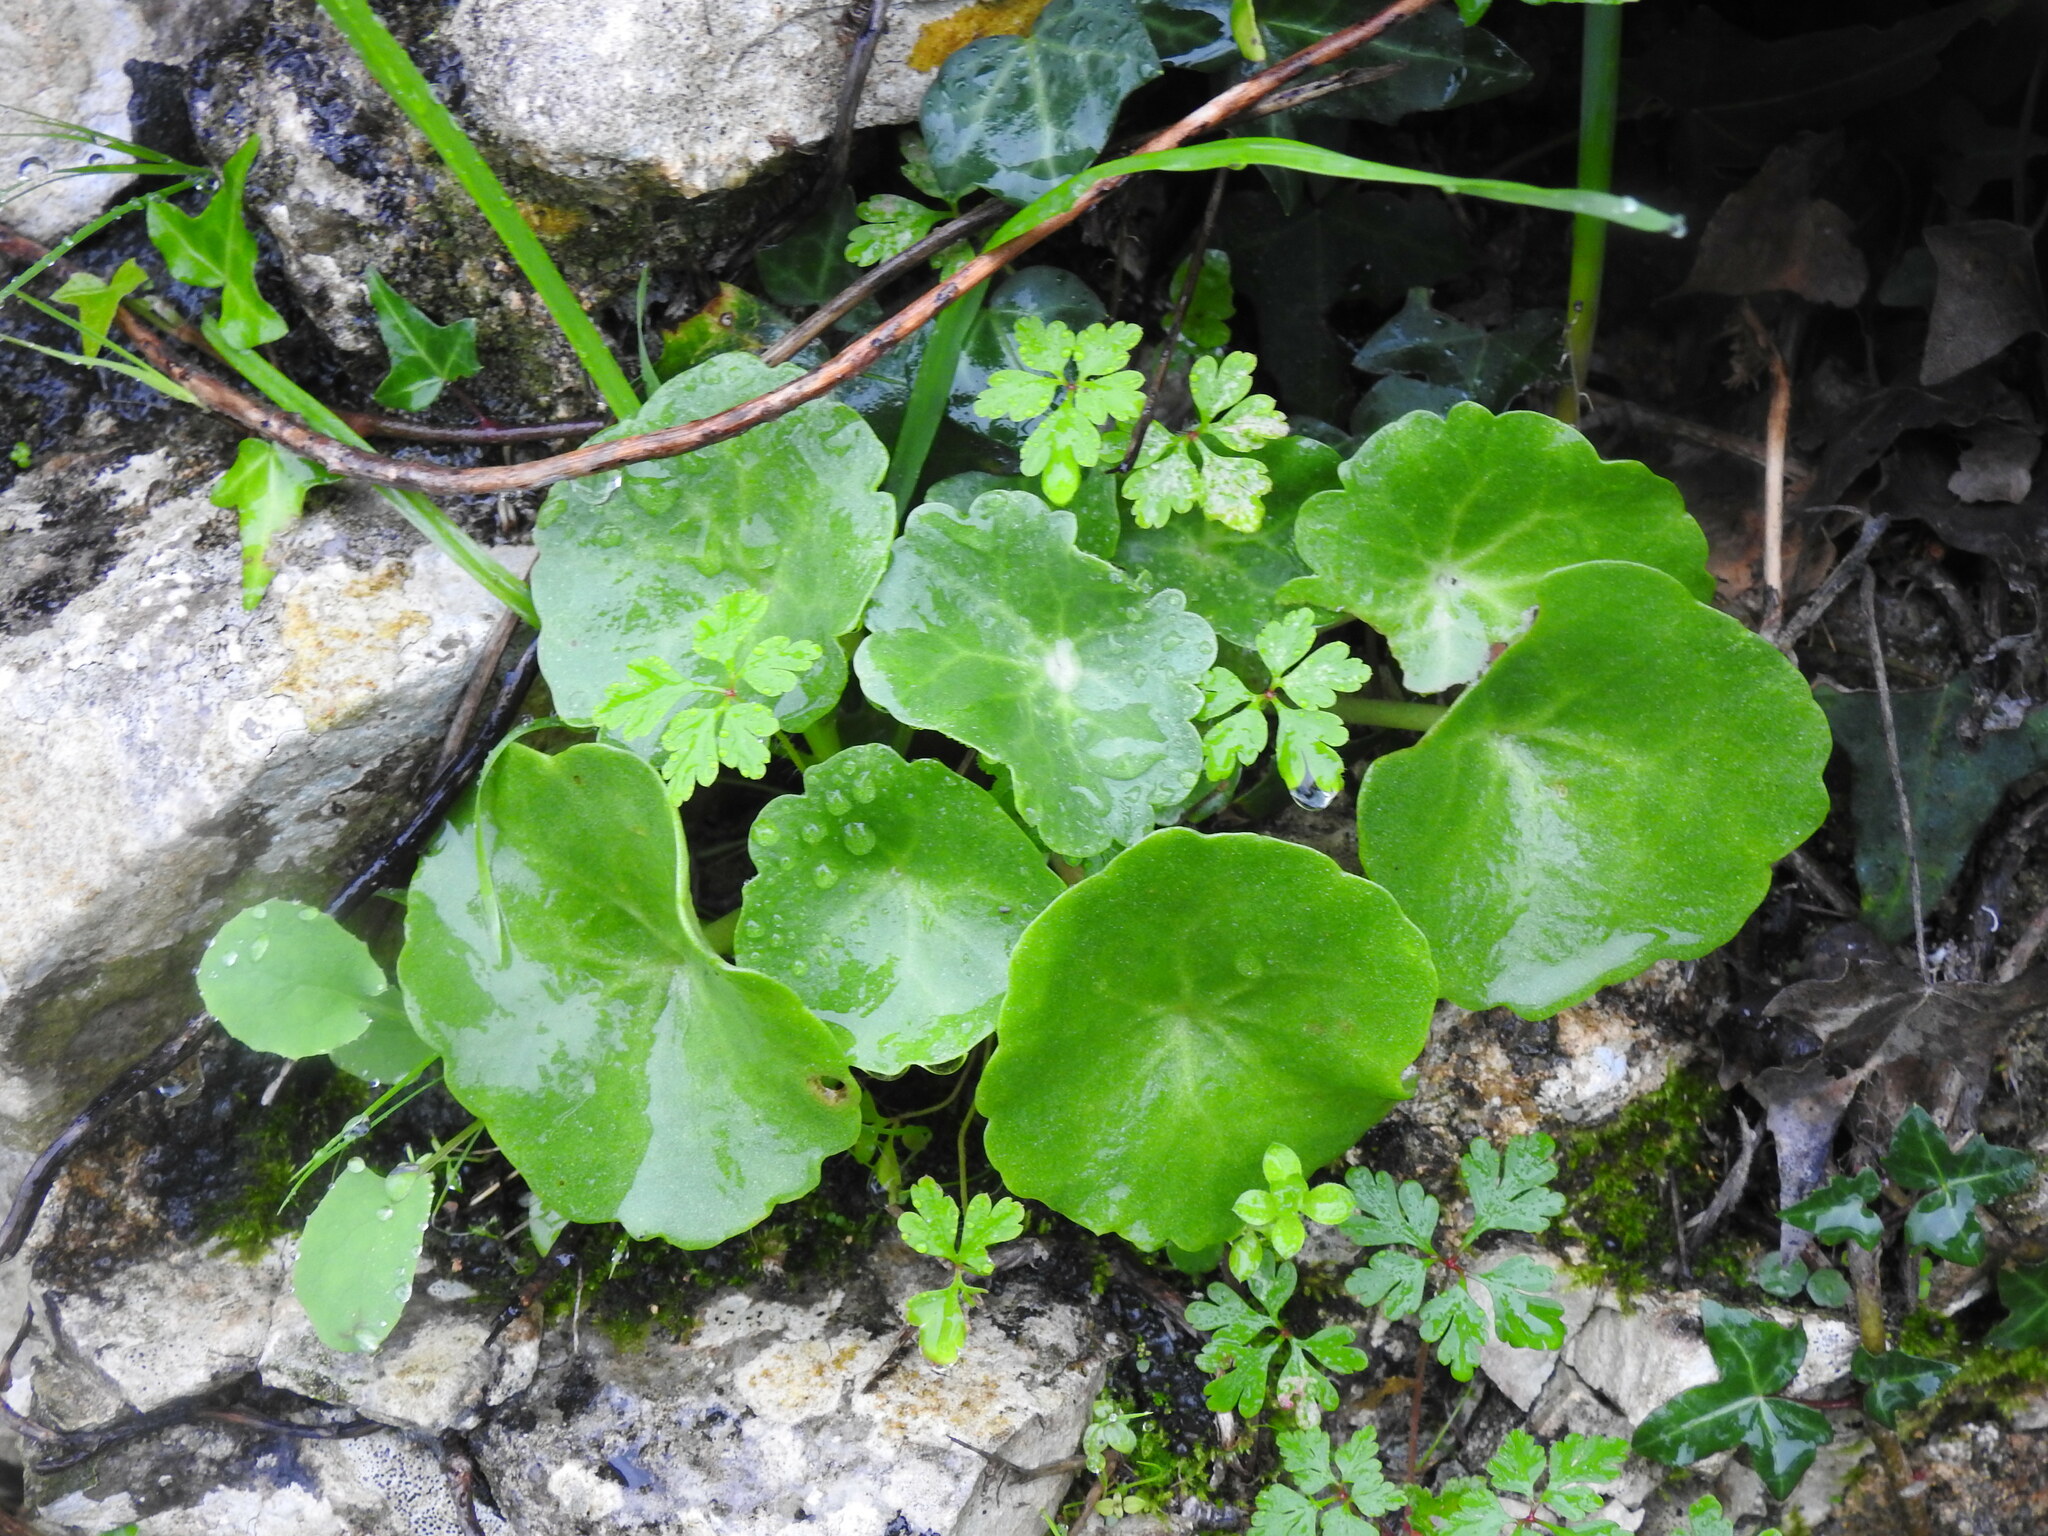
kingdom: Plantae
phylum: Tracheophyta
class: Magnoliopsida
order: Saxifragales
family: Crassulaceae
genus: Umbilicus
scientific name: Umbilicus rupestris
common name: Navelwort
